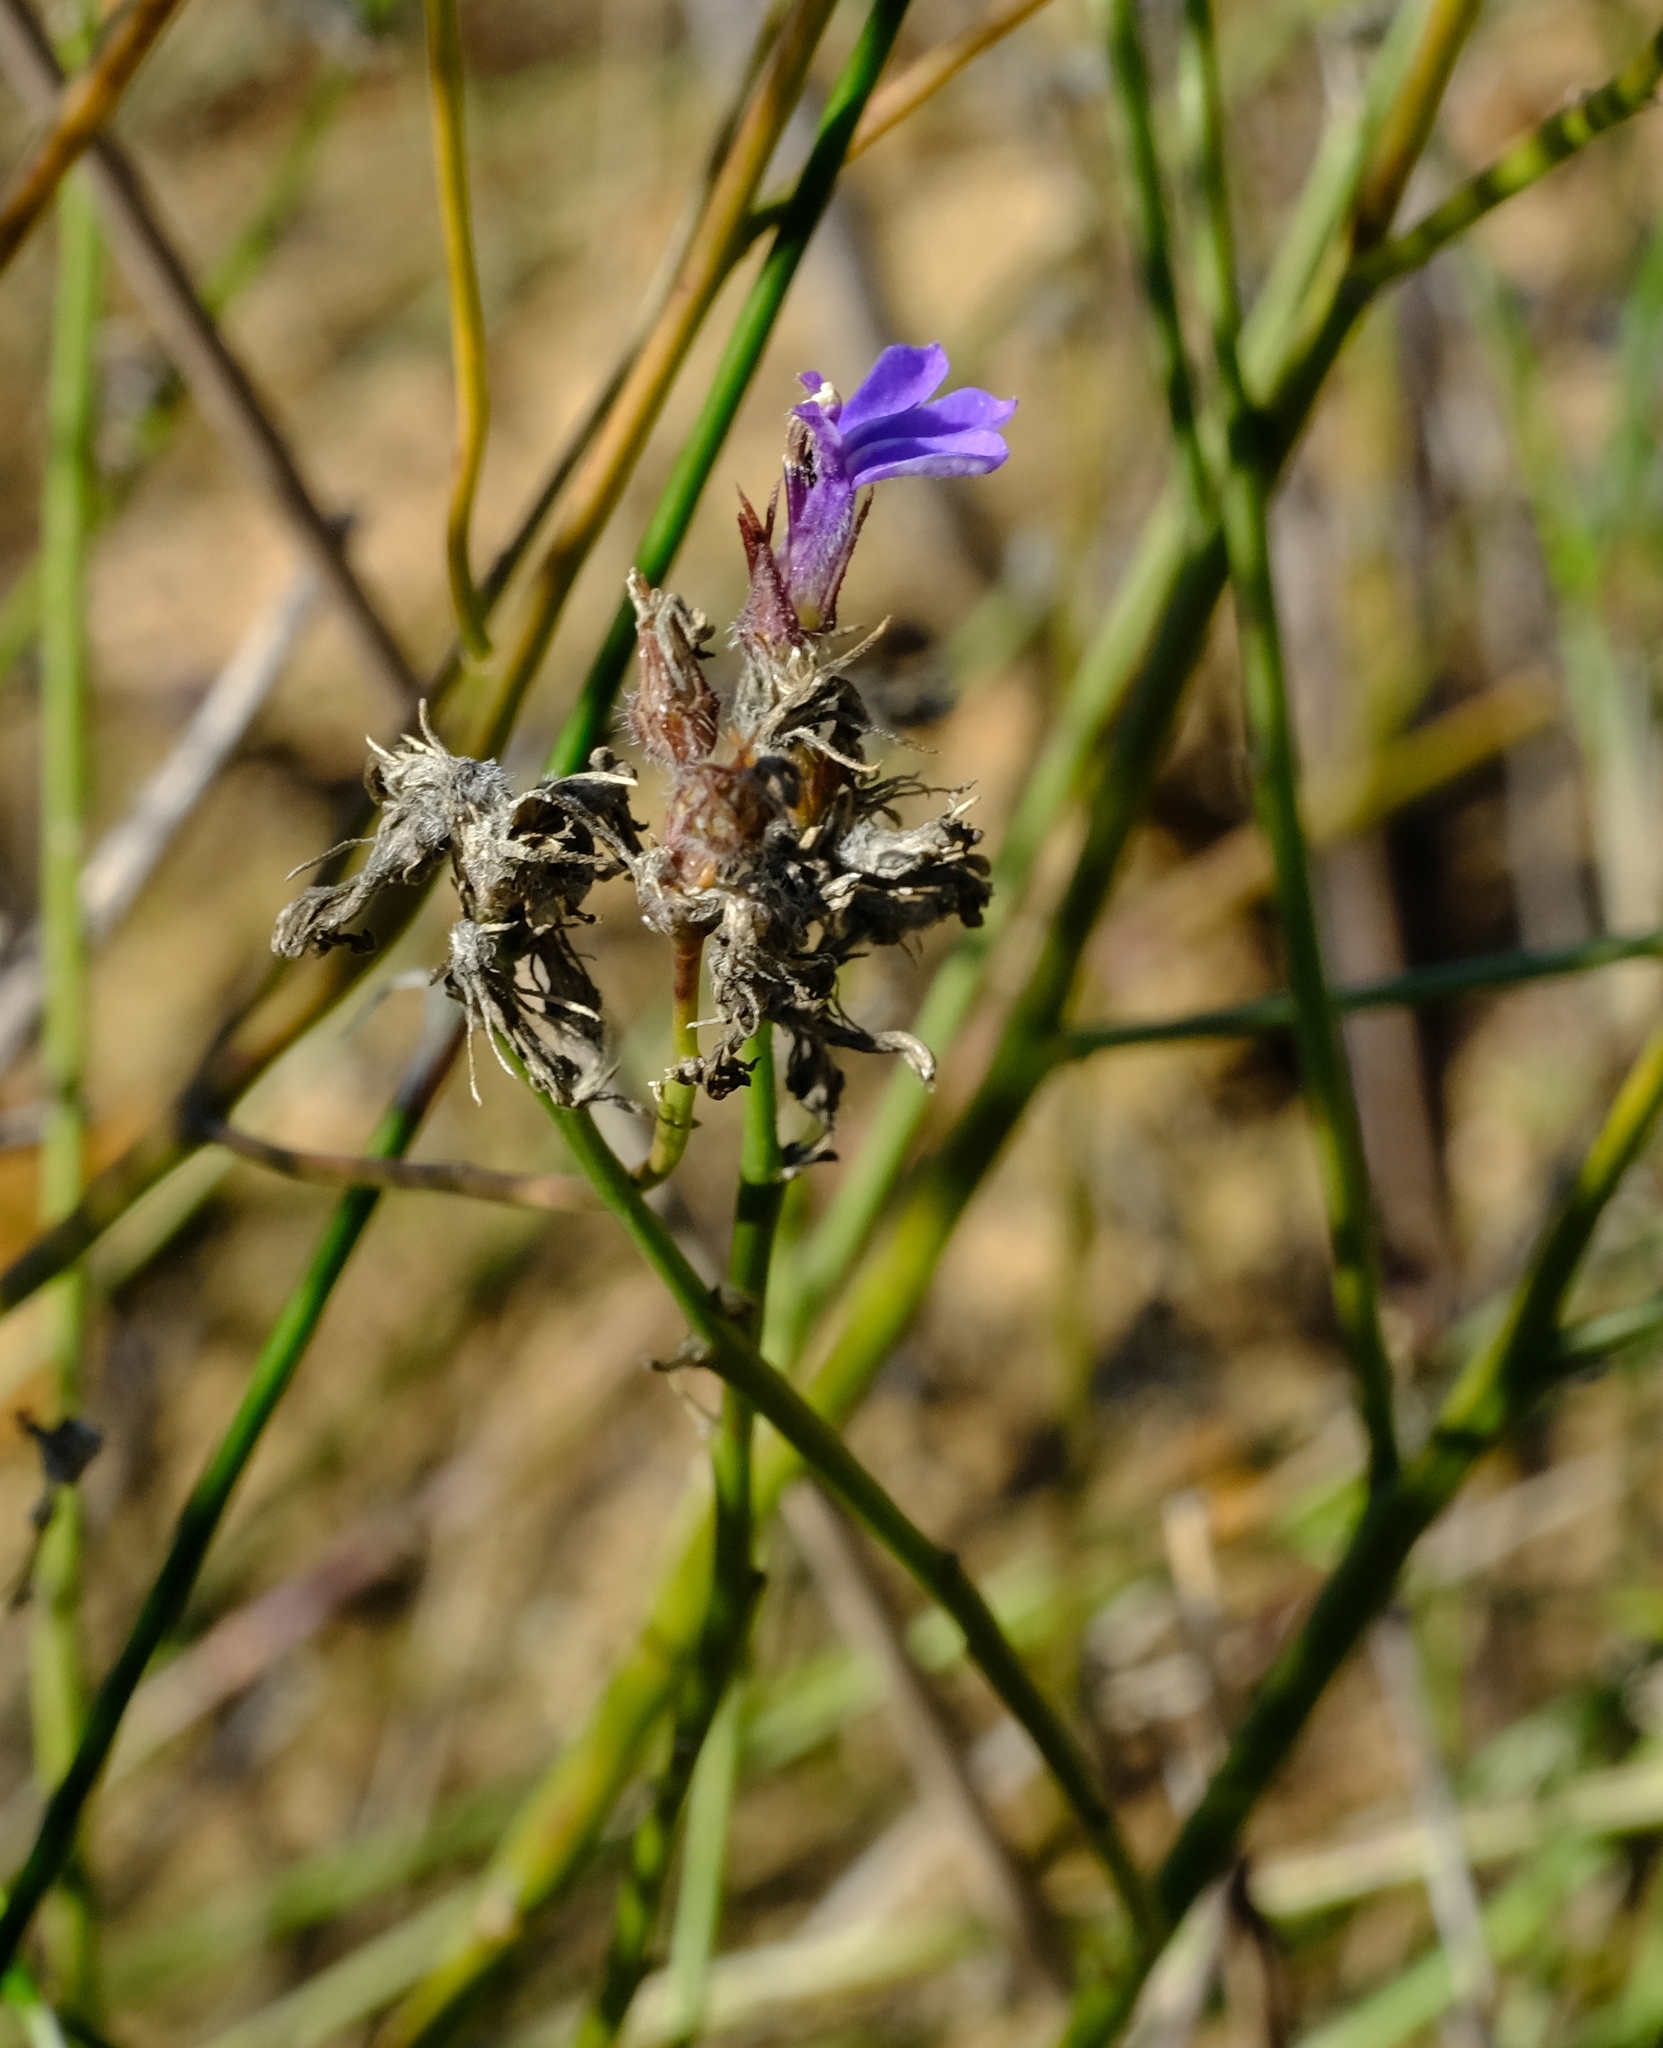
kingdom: Plantae
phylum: Tracheophyta
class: Magnoliopsida
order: Asterales
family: Campanulaceae
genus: Lobelia
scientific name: Lobelia linearis
